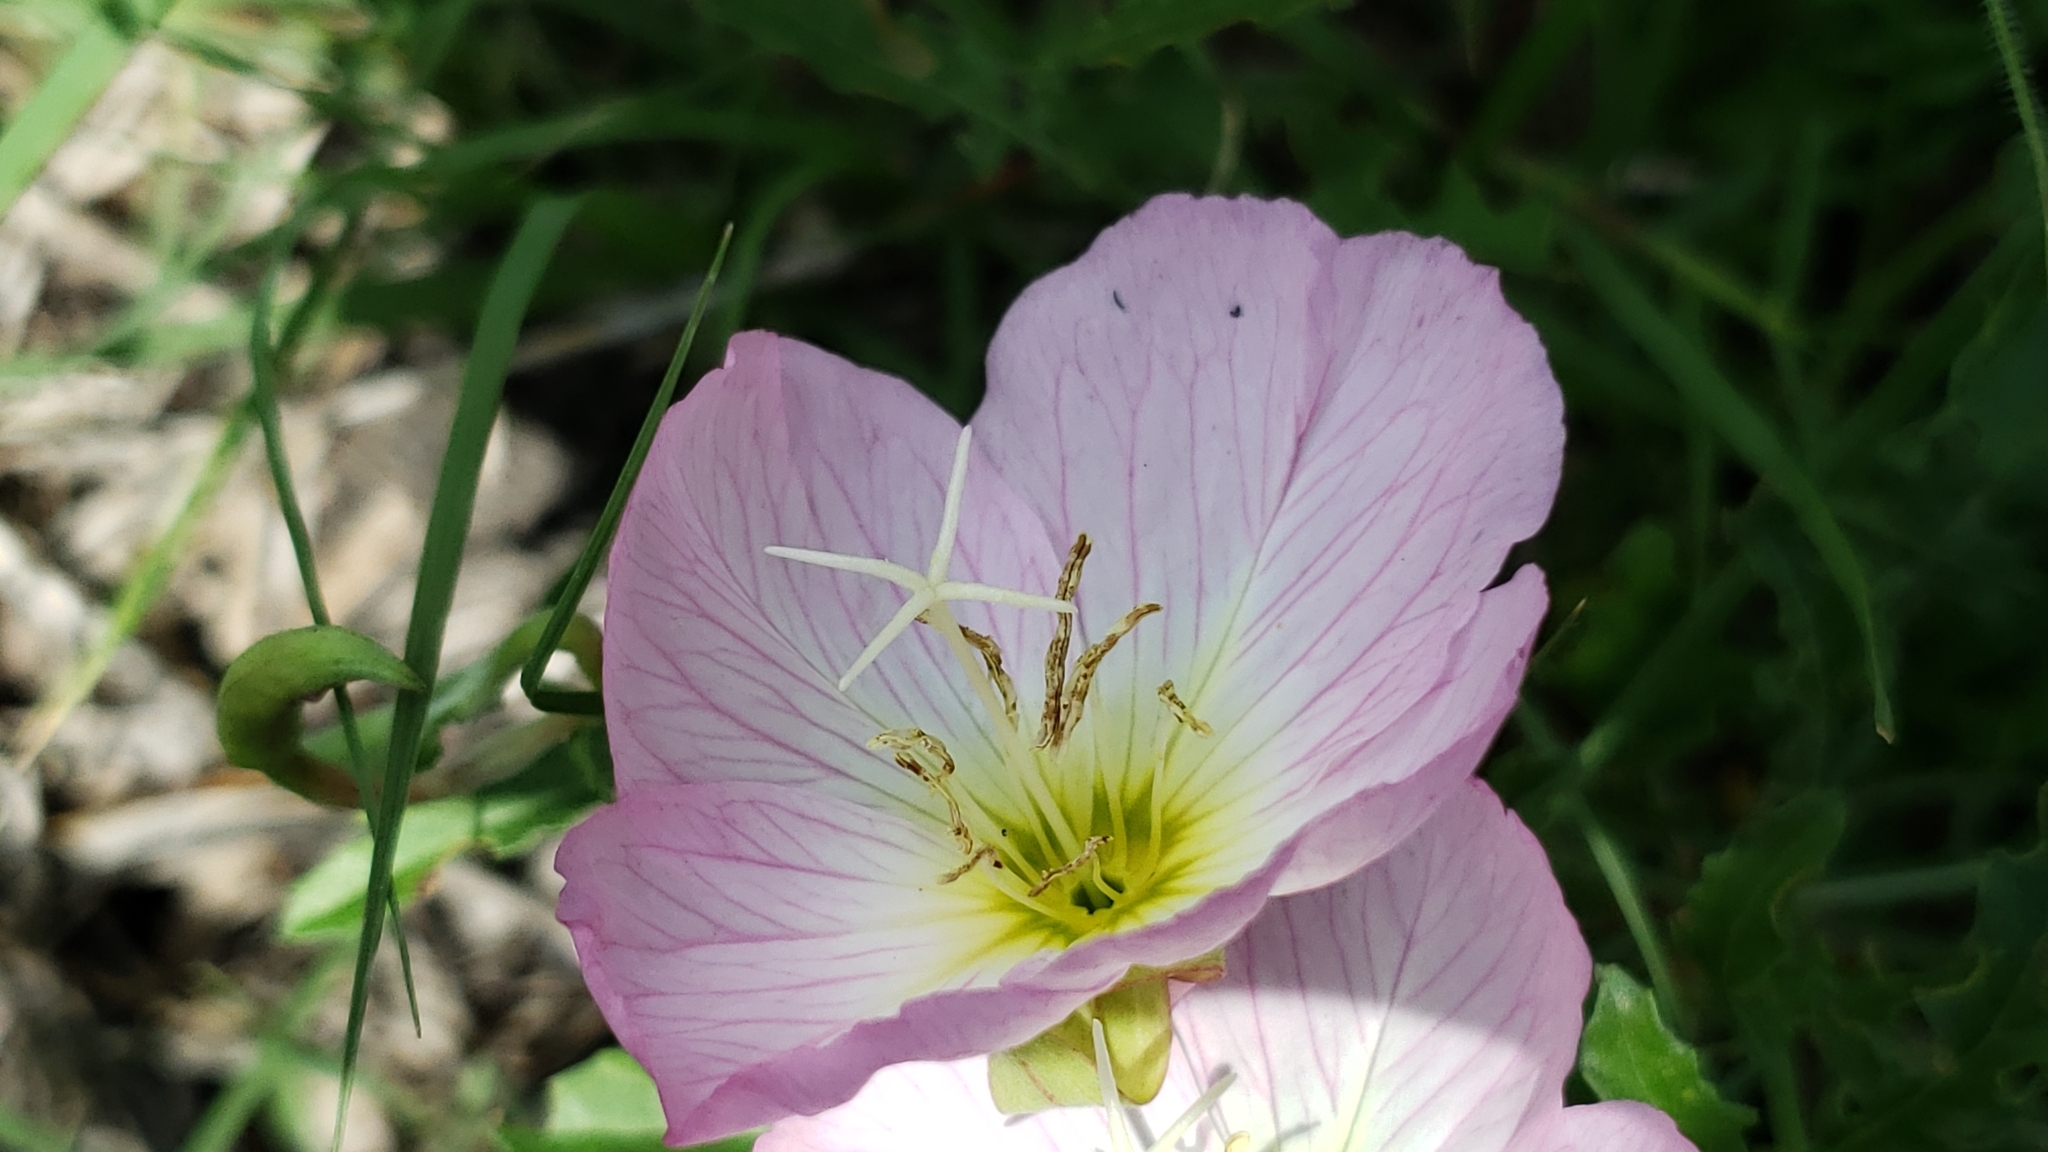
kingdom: Plantae
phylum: Tracheophyta
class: Magnoliopsida
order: Myrtales
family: Onagraceae
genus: Oenothera
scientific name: Oenothera speciosa
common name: White evening-primrose
